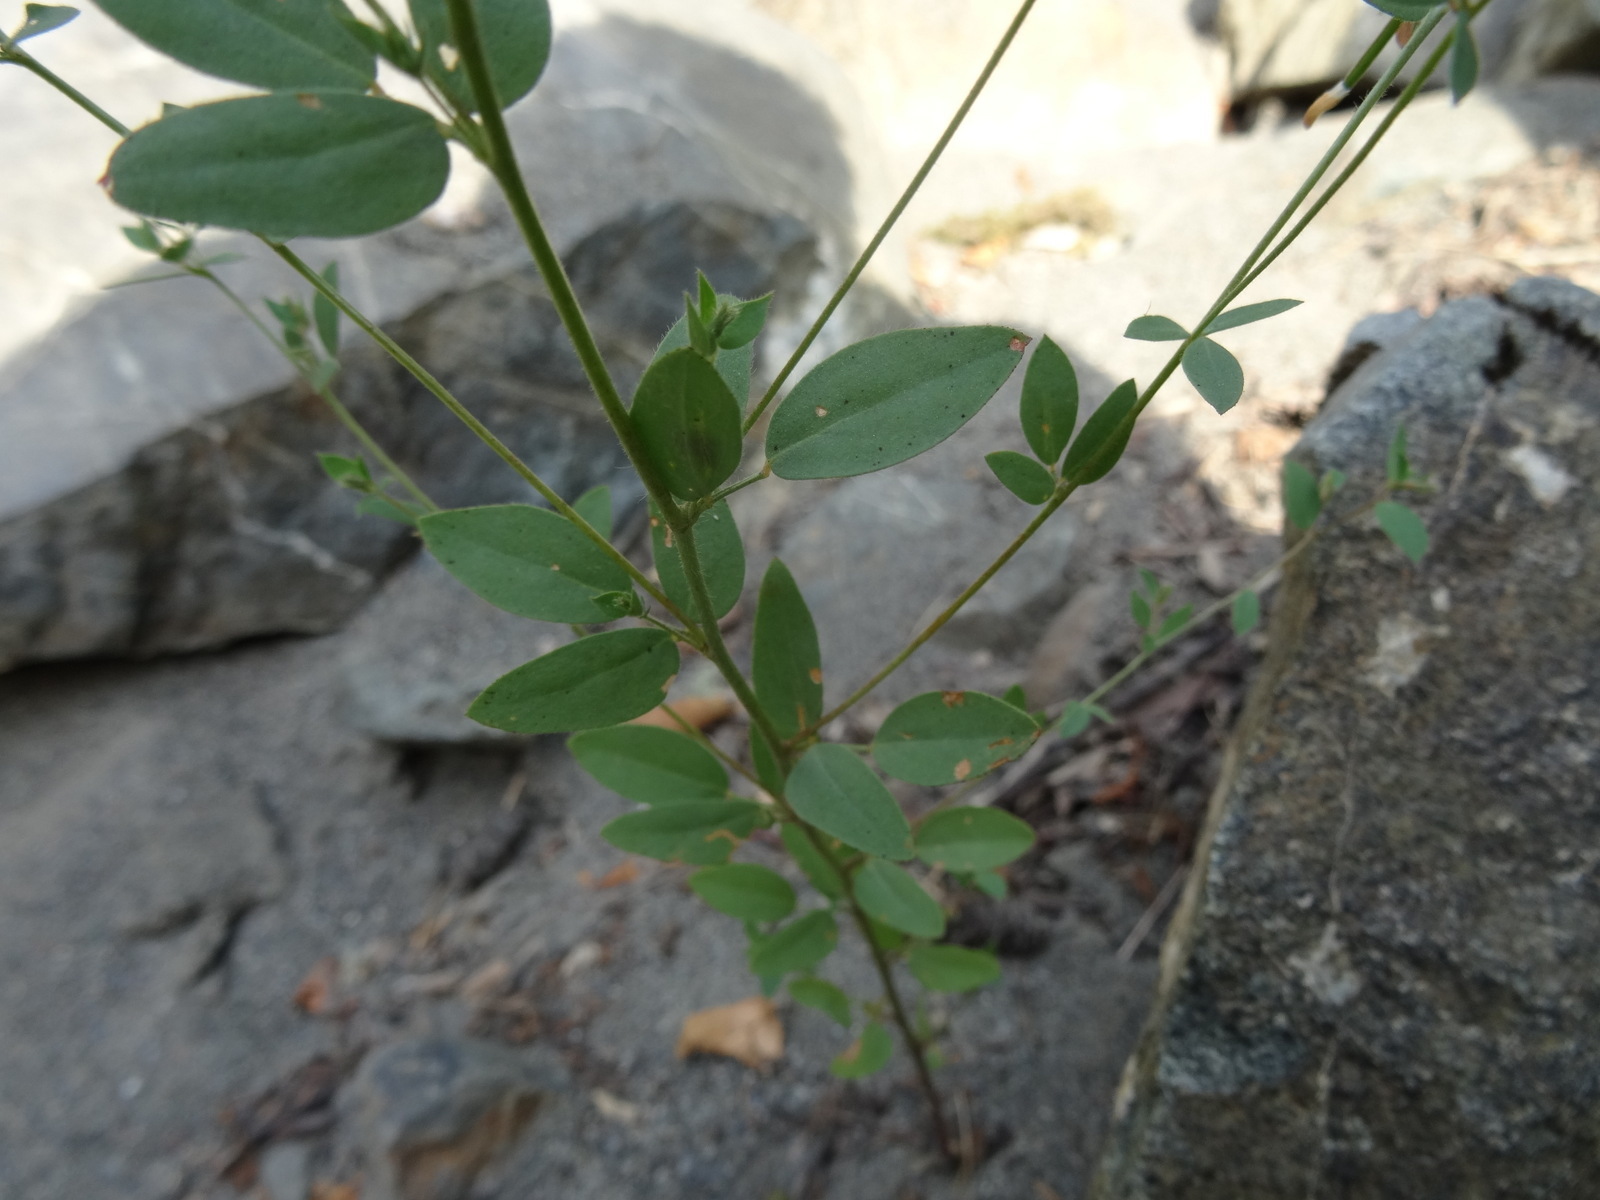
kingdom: Plantae
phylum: Tracheophyta
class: Magnoliopsida
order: Fabales
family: Fabaceae
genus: Acmispon
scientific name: Acmispon americanus
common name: American bird's-foot trefoil
